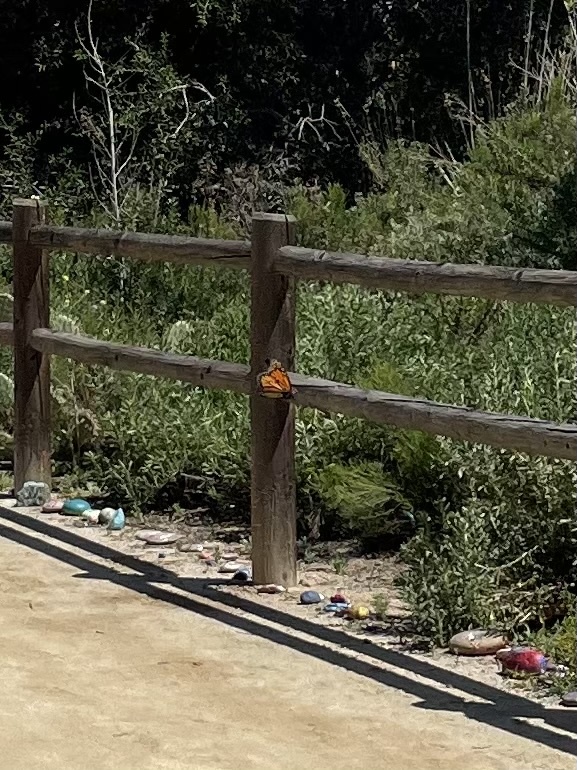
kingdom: Animalia
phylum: Arthropoda
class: Insecta
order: Lepidoptera
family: Nymphalidae
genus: Danaus
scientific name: Danaus plexippus
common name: Monarch
